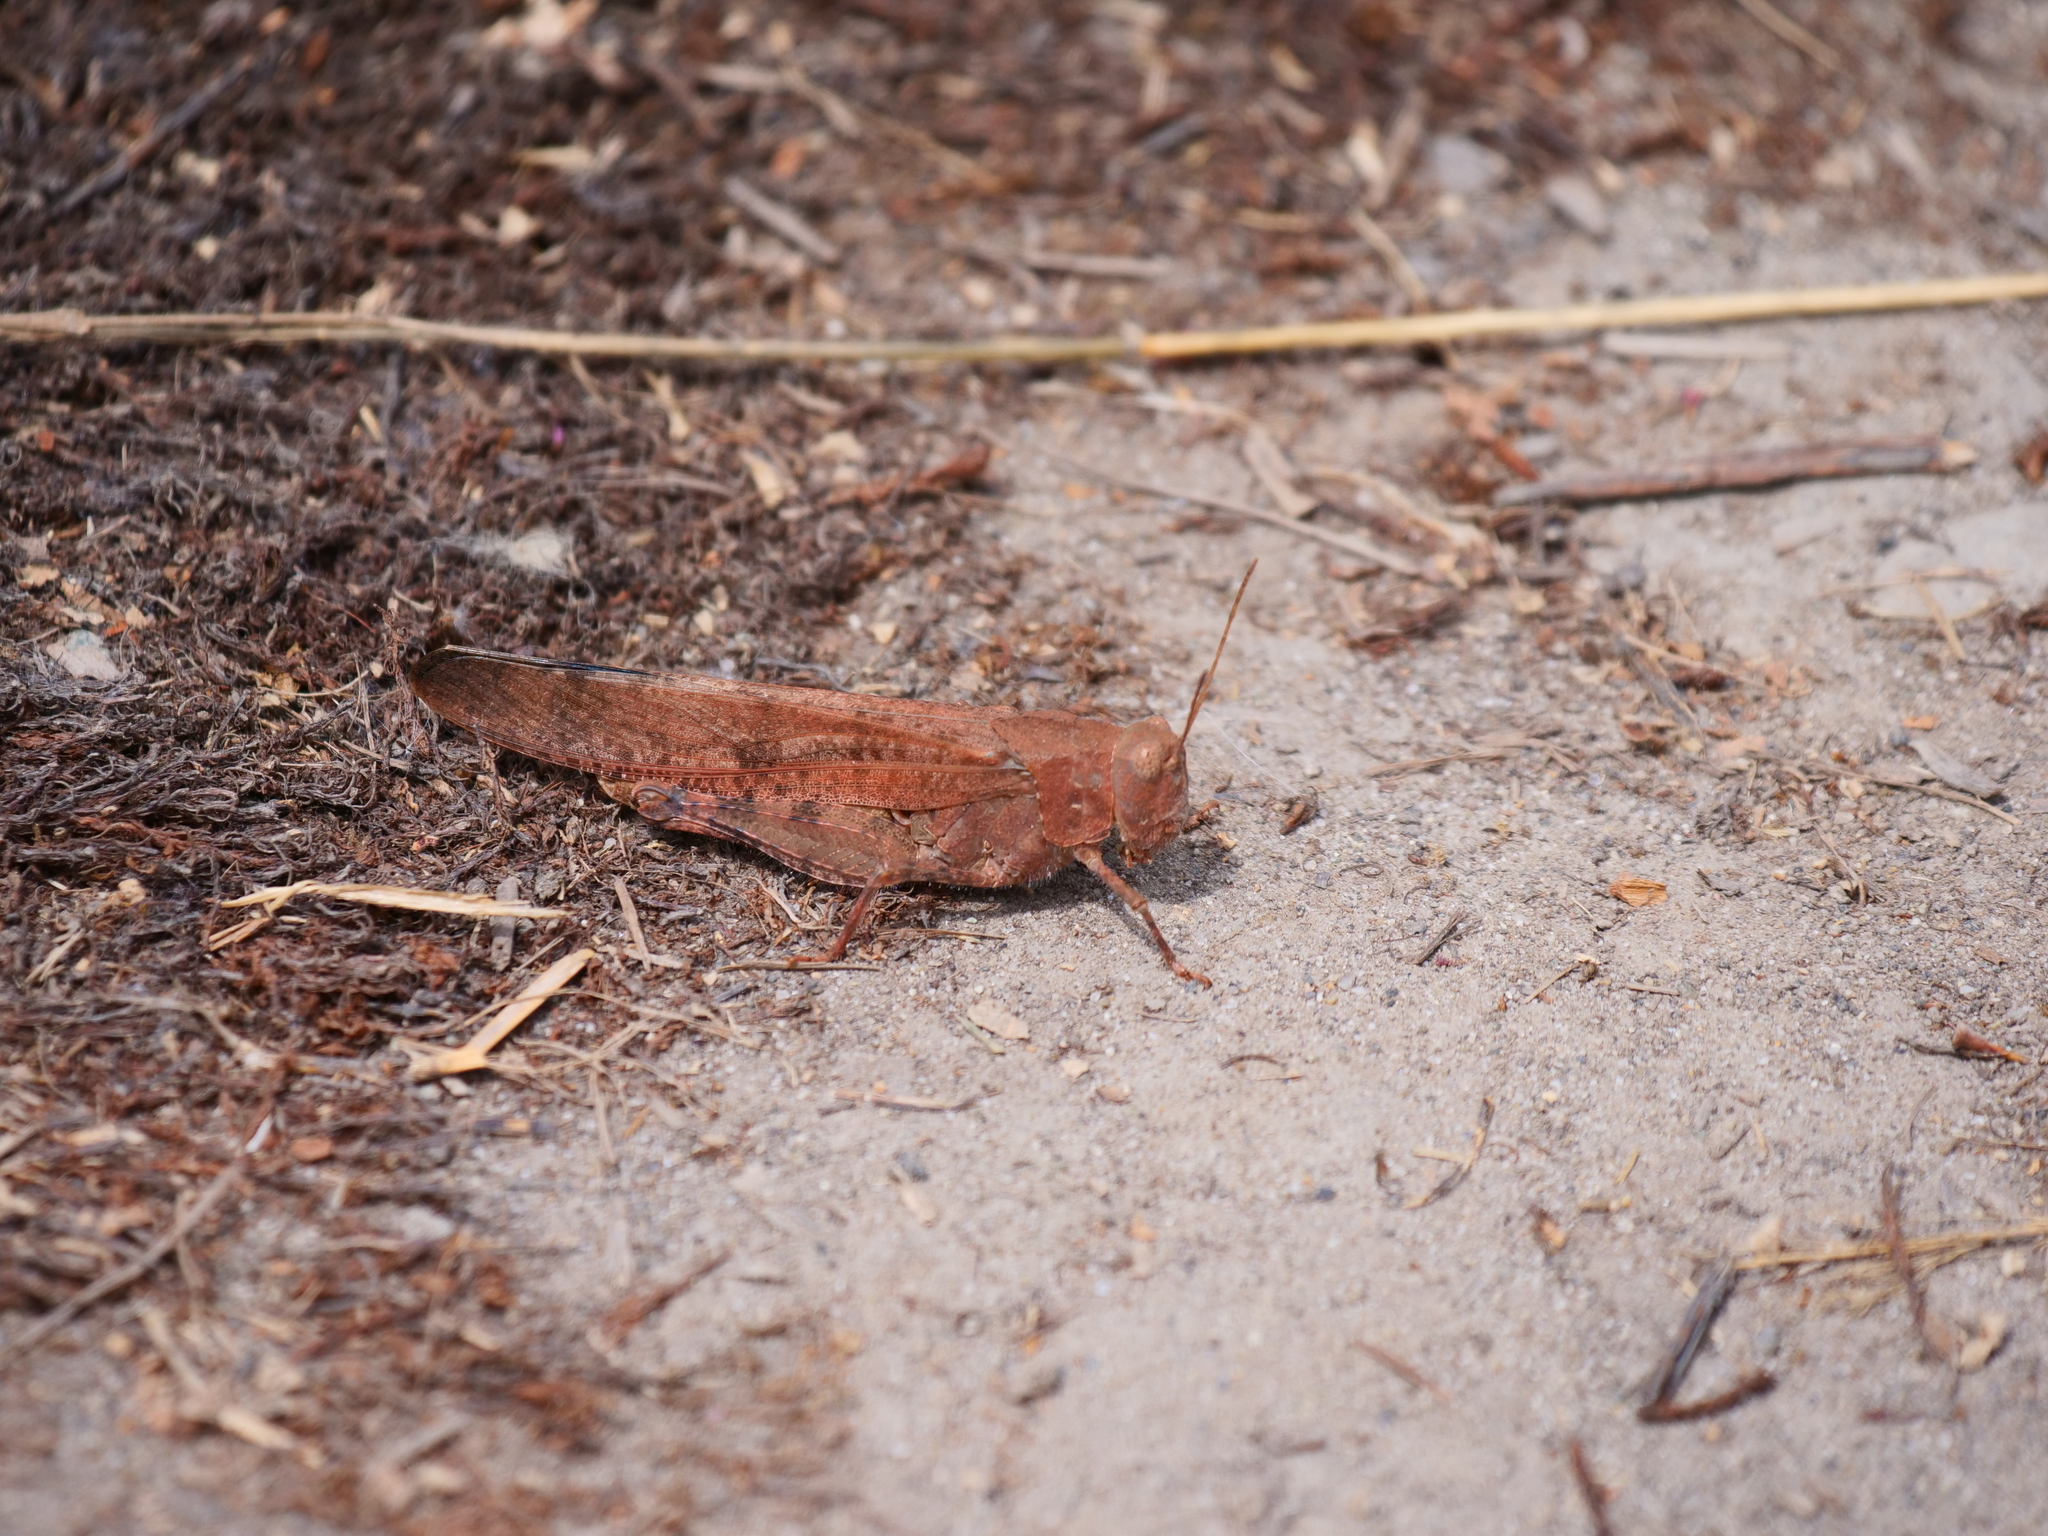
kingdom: Animalia
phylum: Arthropoda
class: Insecta
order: Orthoptera
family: Acrididae
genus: Dissosteira
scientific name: Dissosteira carolina
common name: Carolina grasshopper
